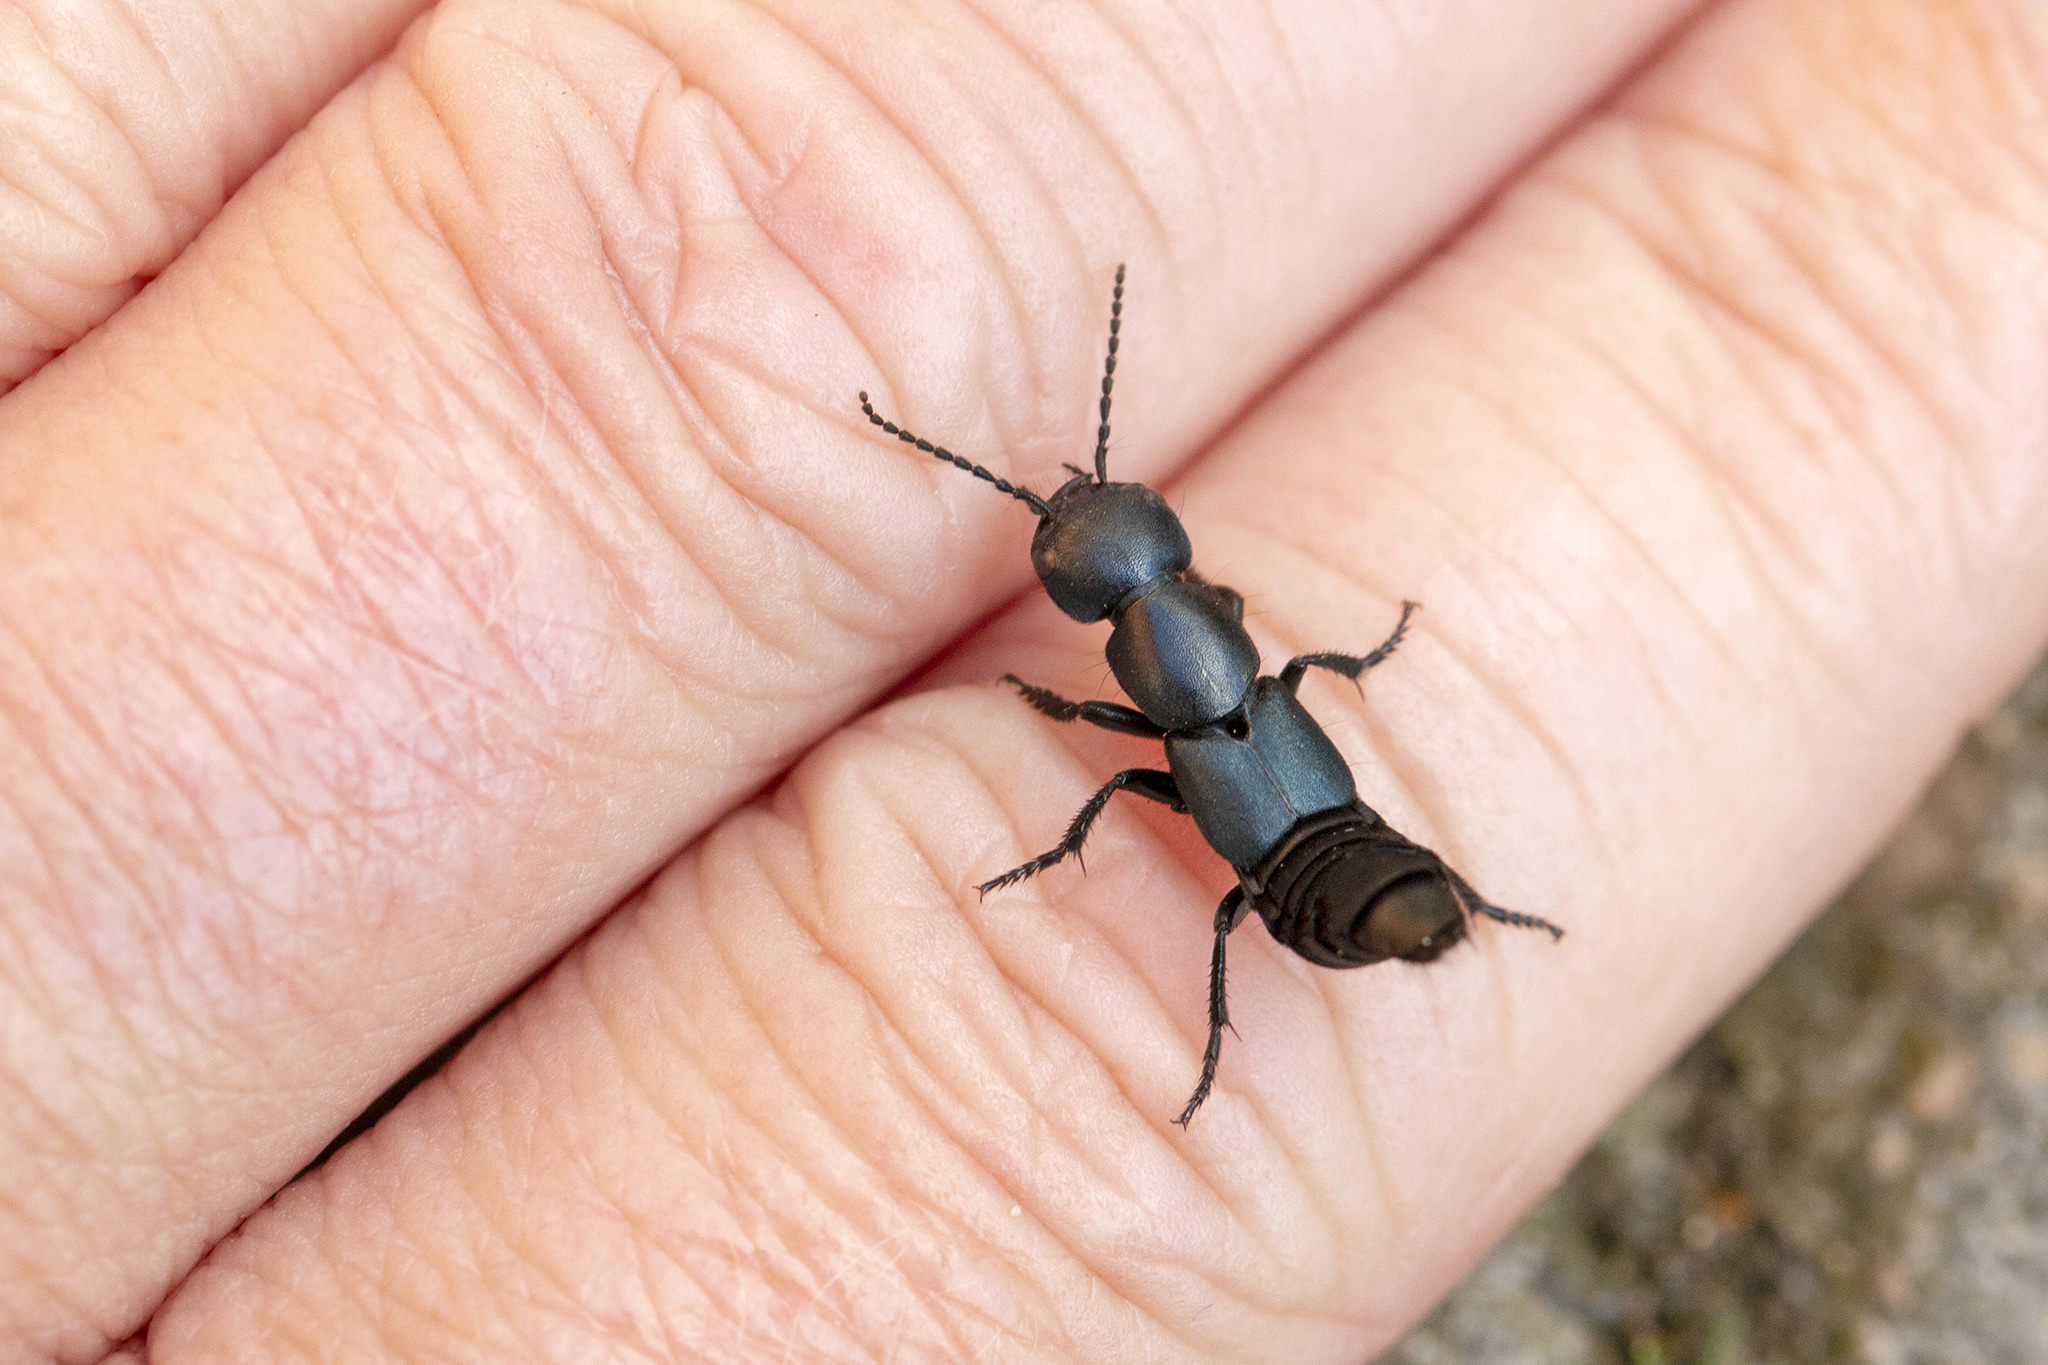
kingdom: Animalia
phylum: Arthropoda
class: Insecta
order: Coleoptera
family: Staphylinidae
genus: Ocypus
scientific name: Ocypus ophthalmicus
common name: Blue rove-beetle
